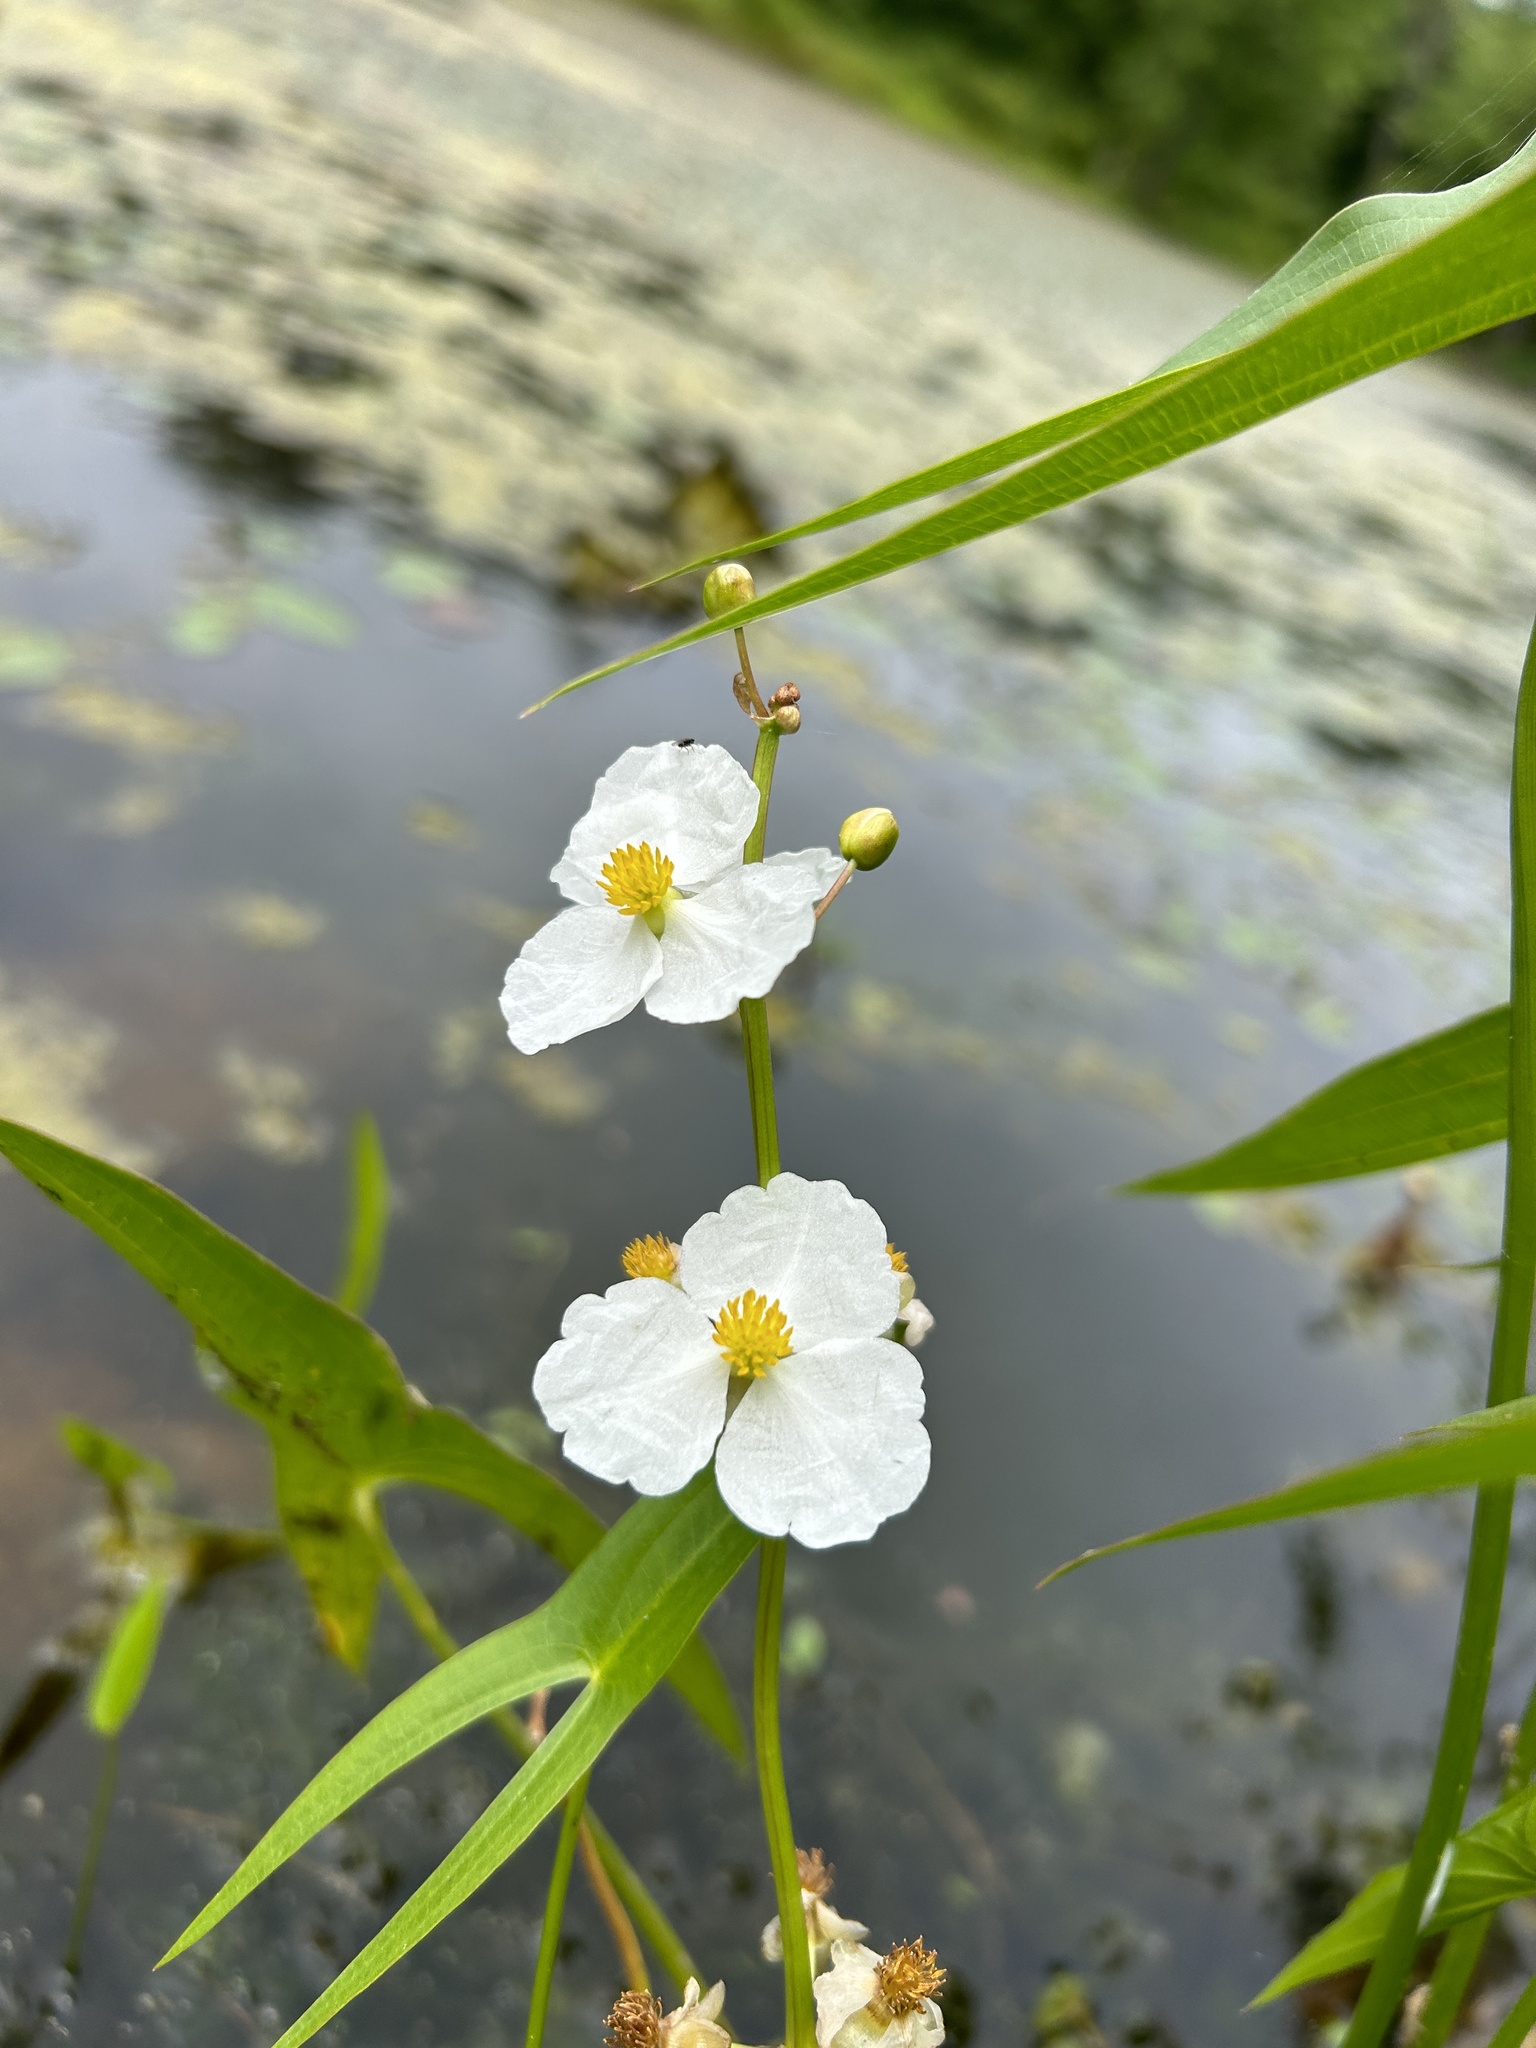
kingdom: Plantae
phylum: Tracheophyta
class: Liliopsida
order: Alismatales
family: Alismataceae
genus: Sagittaria
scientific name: Sagittaria latifolia
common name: Duck-potato
